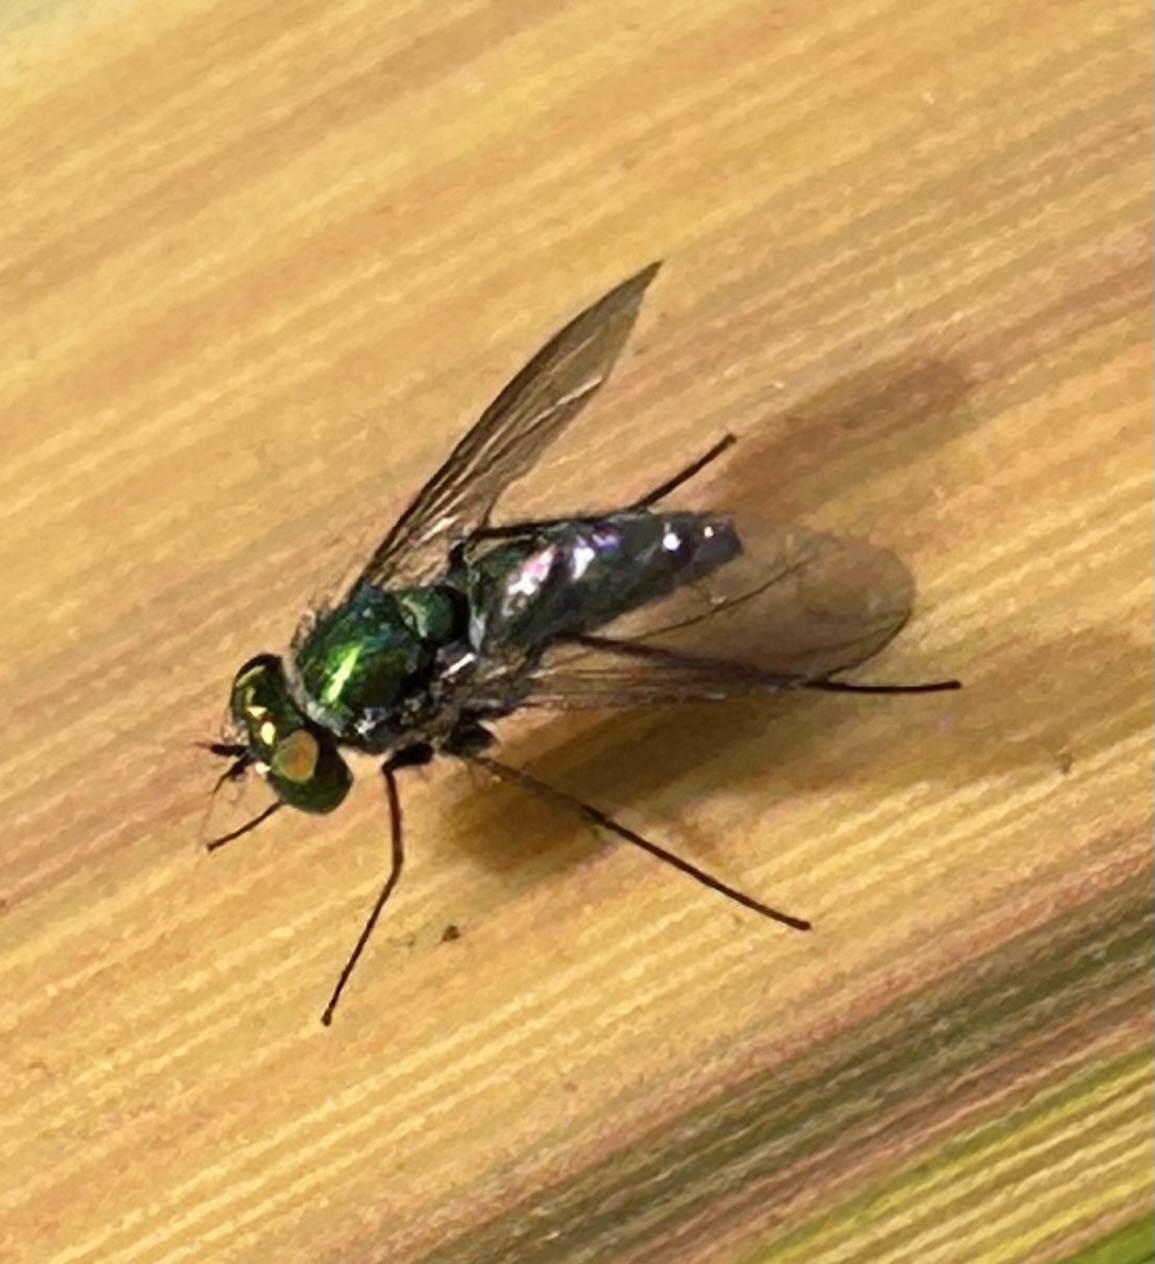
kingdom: Animalia
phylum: Arthropoda
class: Insecta
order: Diptera
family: Dolichopodidae
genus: Condylostylus
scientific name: Condylostylus longicornis
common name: Long-legged fly
